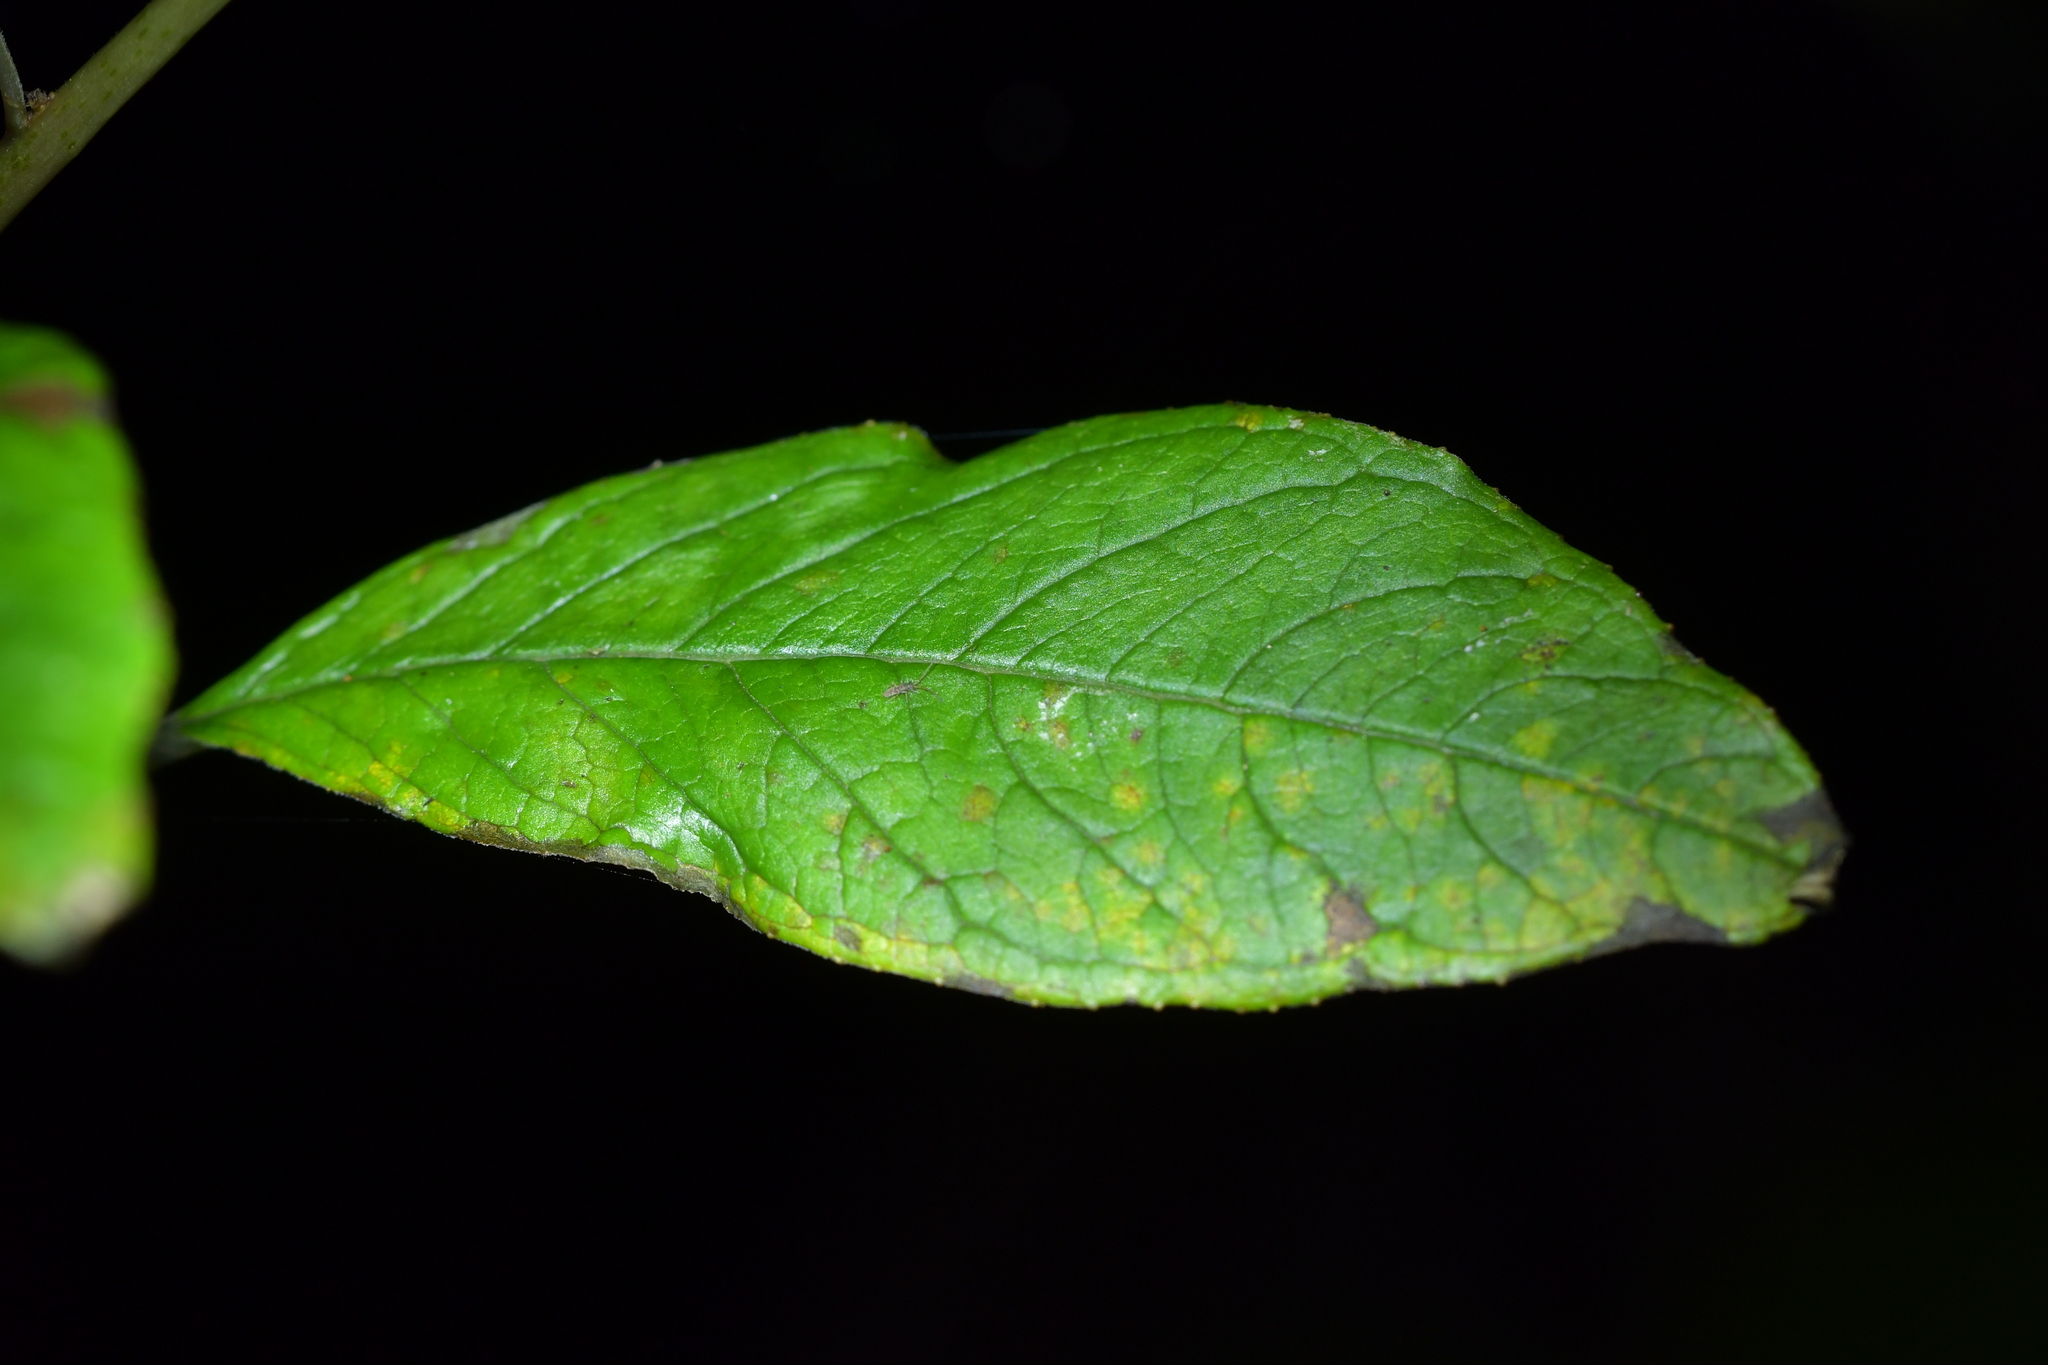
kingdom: Fungi
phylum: Basidiomycota
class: Pucciniomycetes
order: Pucciniales
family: Mikronegeriaceae
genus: Mikronegeria
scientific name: Mikronegeria fuchsiae
